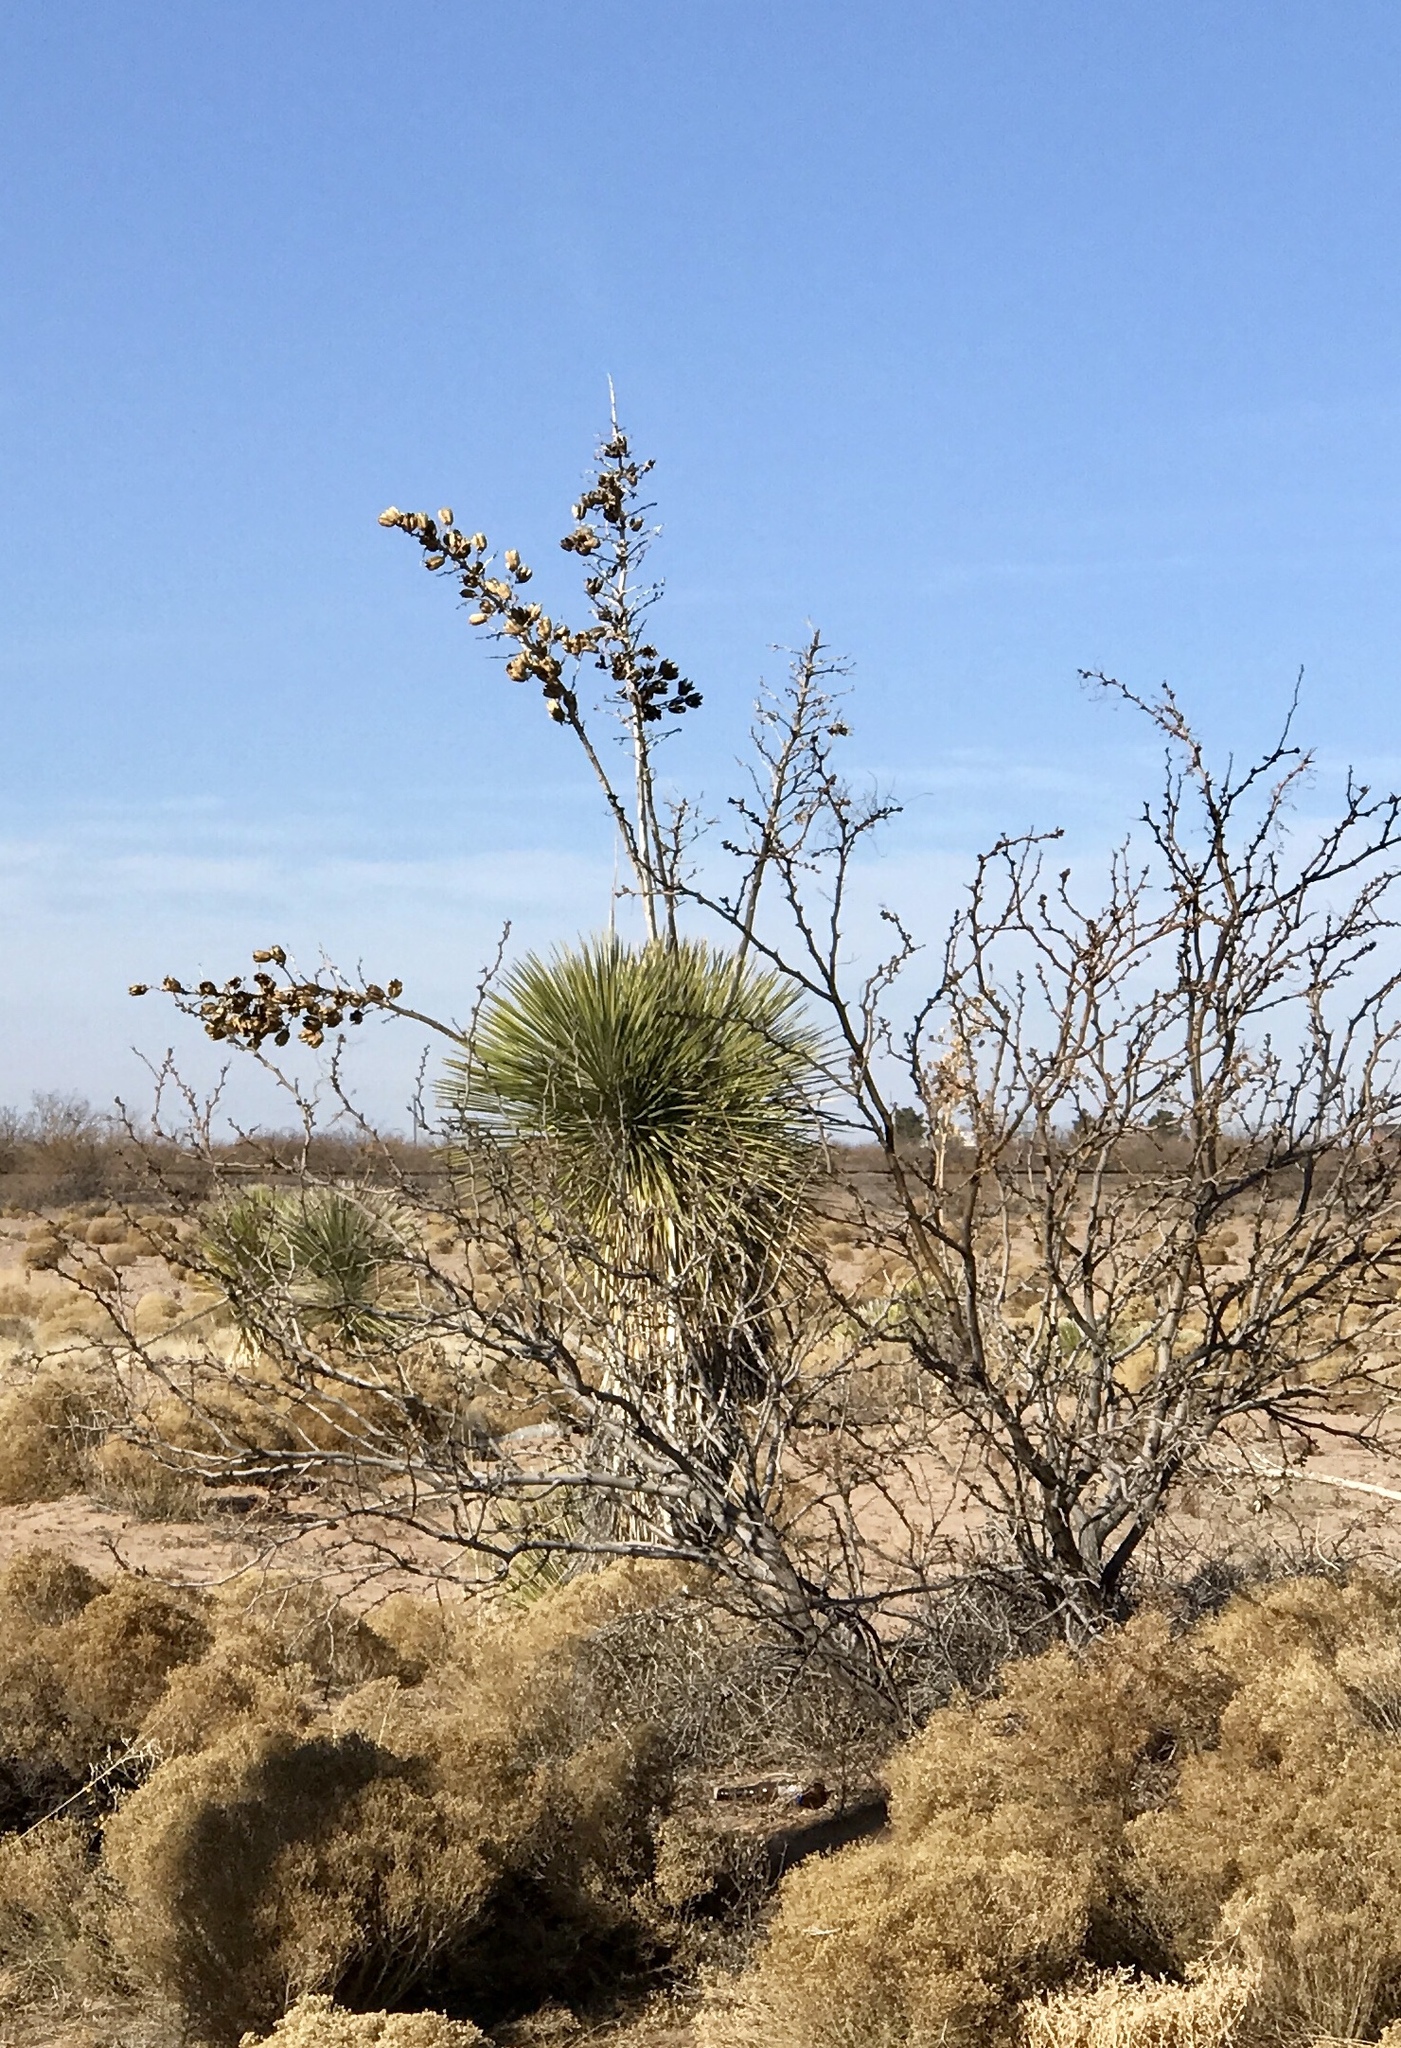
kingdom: Plantae
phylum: Tracheophyta
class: Liliopsida
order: Asparagales
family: Asparagaceae
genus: Yucca
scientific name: Yucca elata
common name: Palmella
